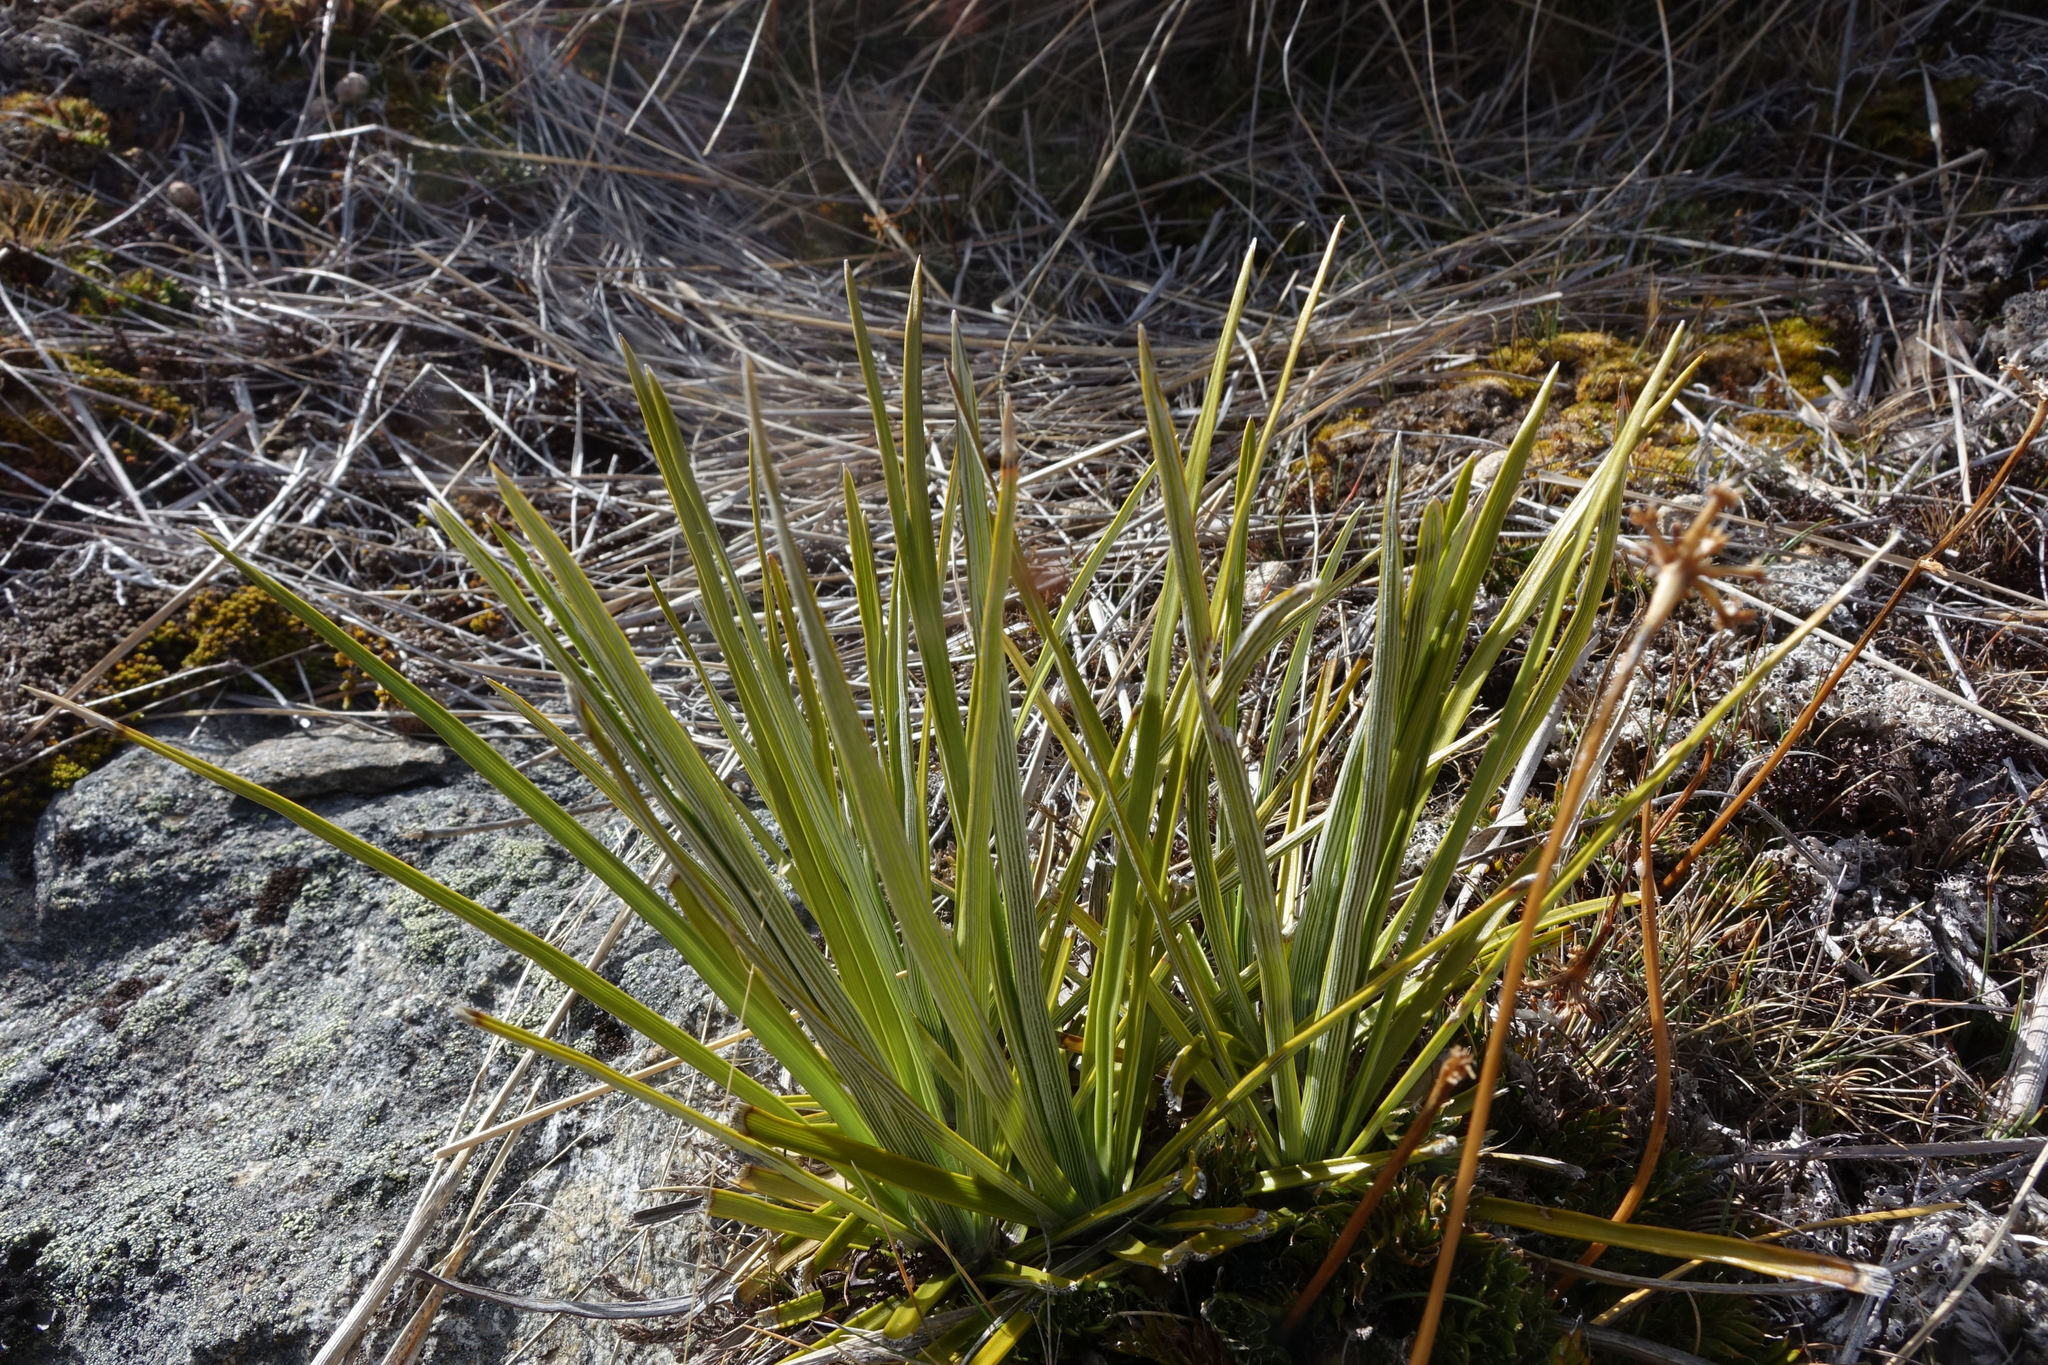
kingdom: Plantae
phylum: Tracheophyta
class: Magnoliopsida
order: Asterales
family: Asteraceae
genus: Celmisia
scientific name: Celmisia lyallii
